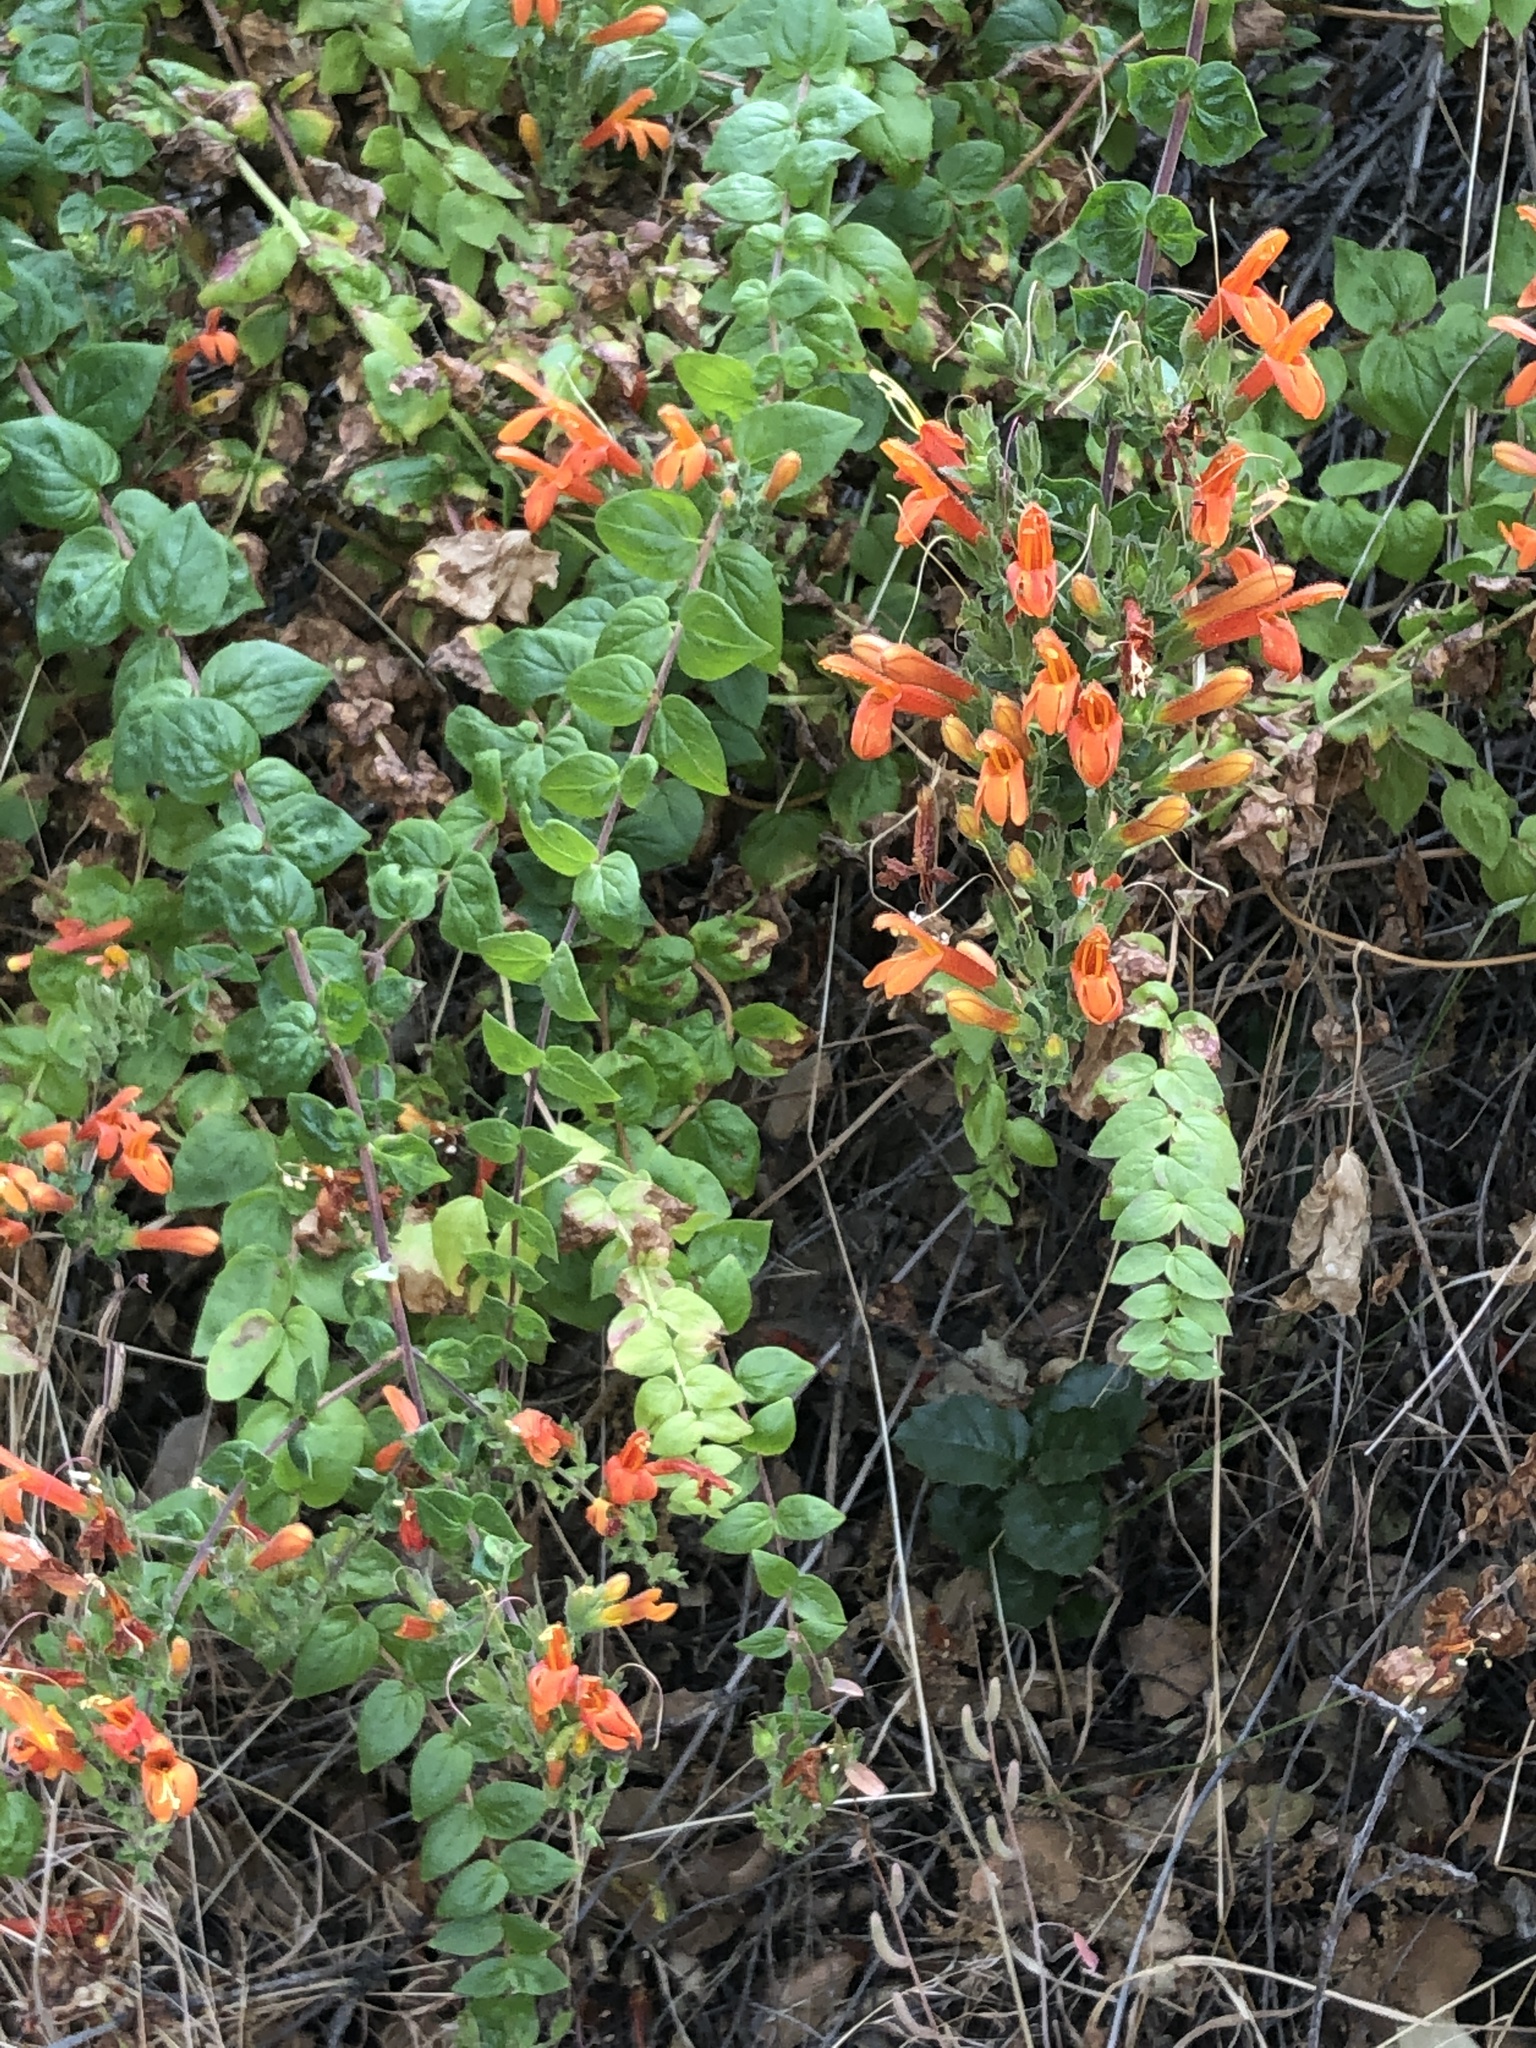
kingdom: Plantae
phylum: Tracheophyta
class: Magnoliopsida
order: Lamiales
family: Plantaginaceae
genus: Keckiella
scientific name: Keckiella cordifolia
